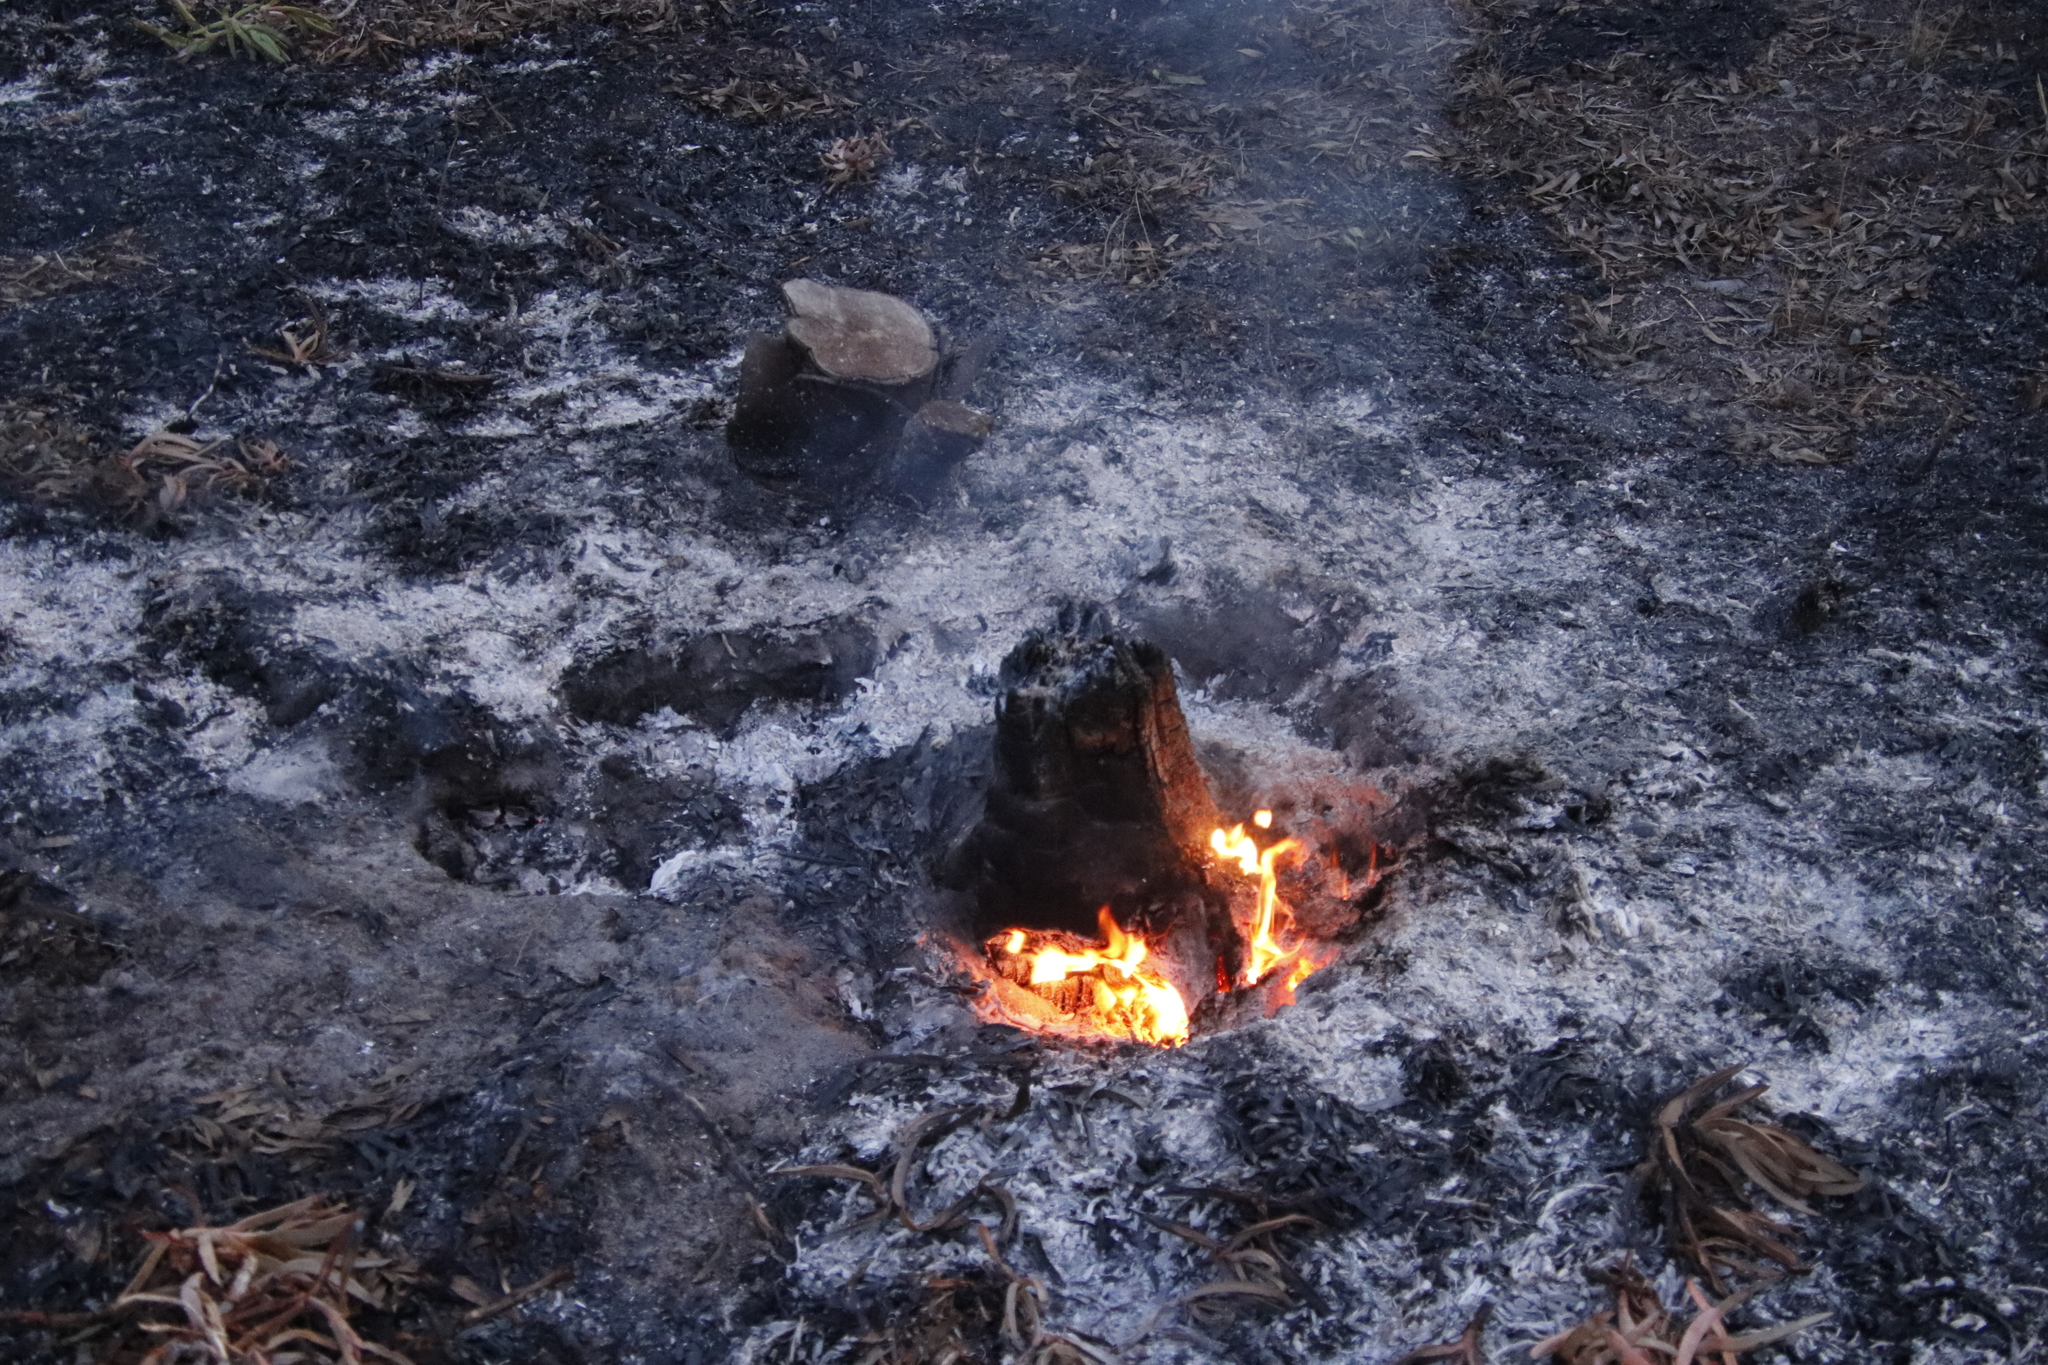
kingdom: Plantae
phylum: Tracheophyta
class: Pinopsida
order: Pinales
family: Pinaceae
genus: Pinus
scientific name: Pinus radiata
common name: Monterey pine
